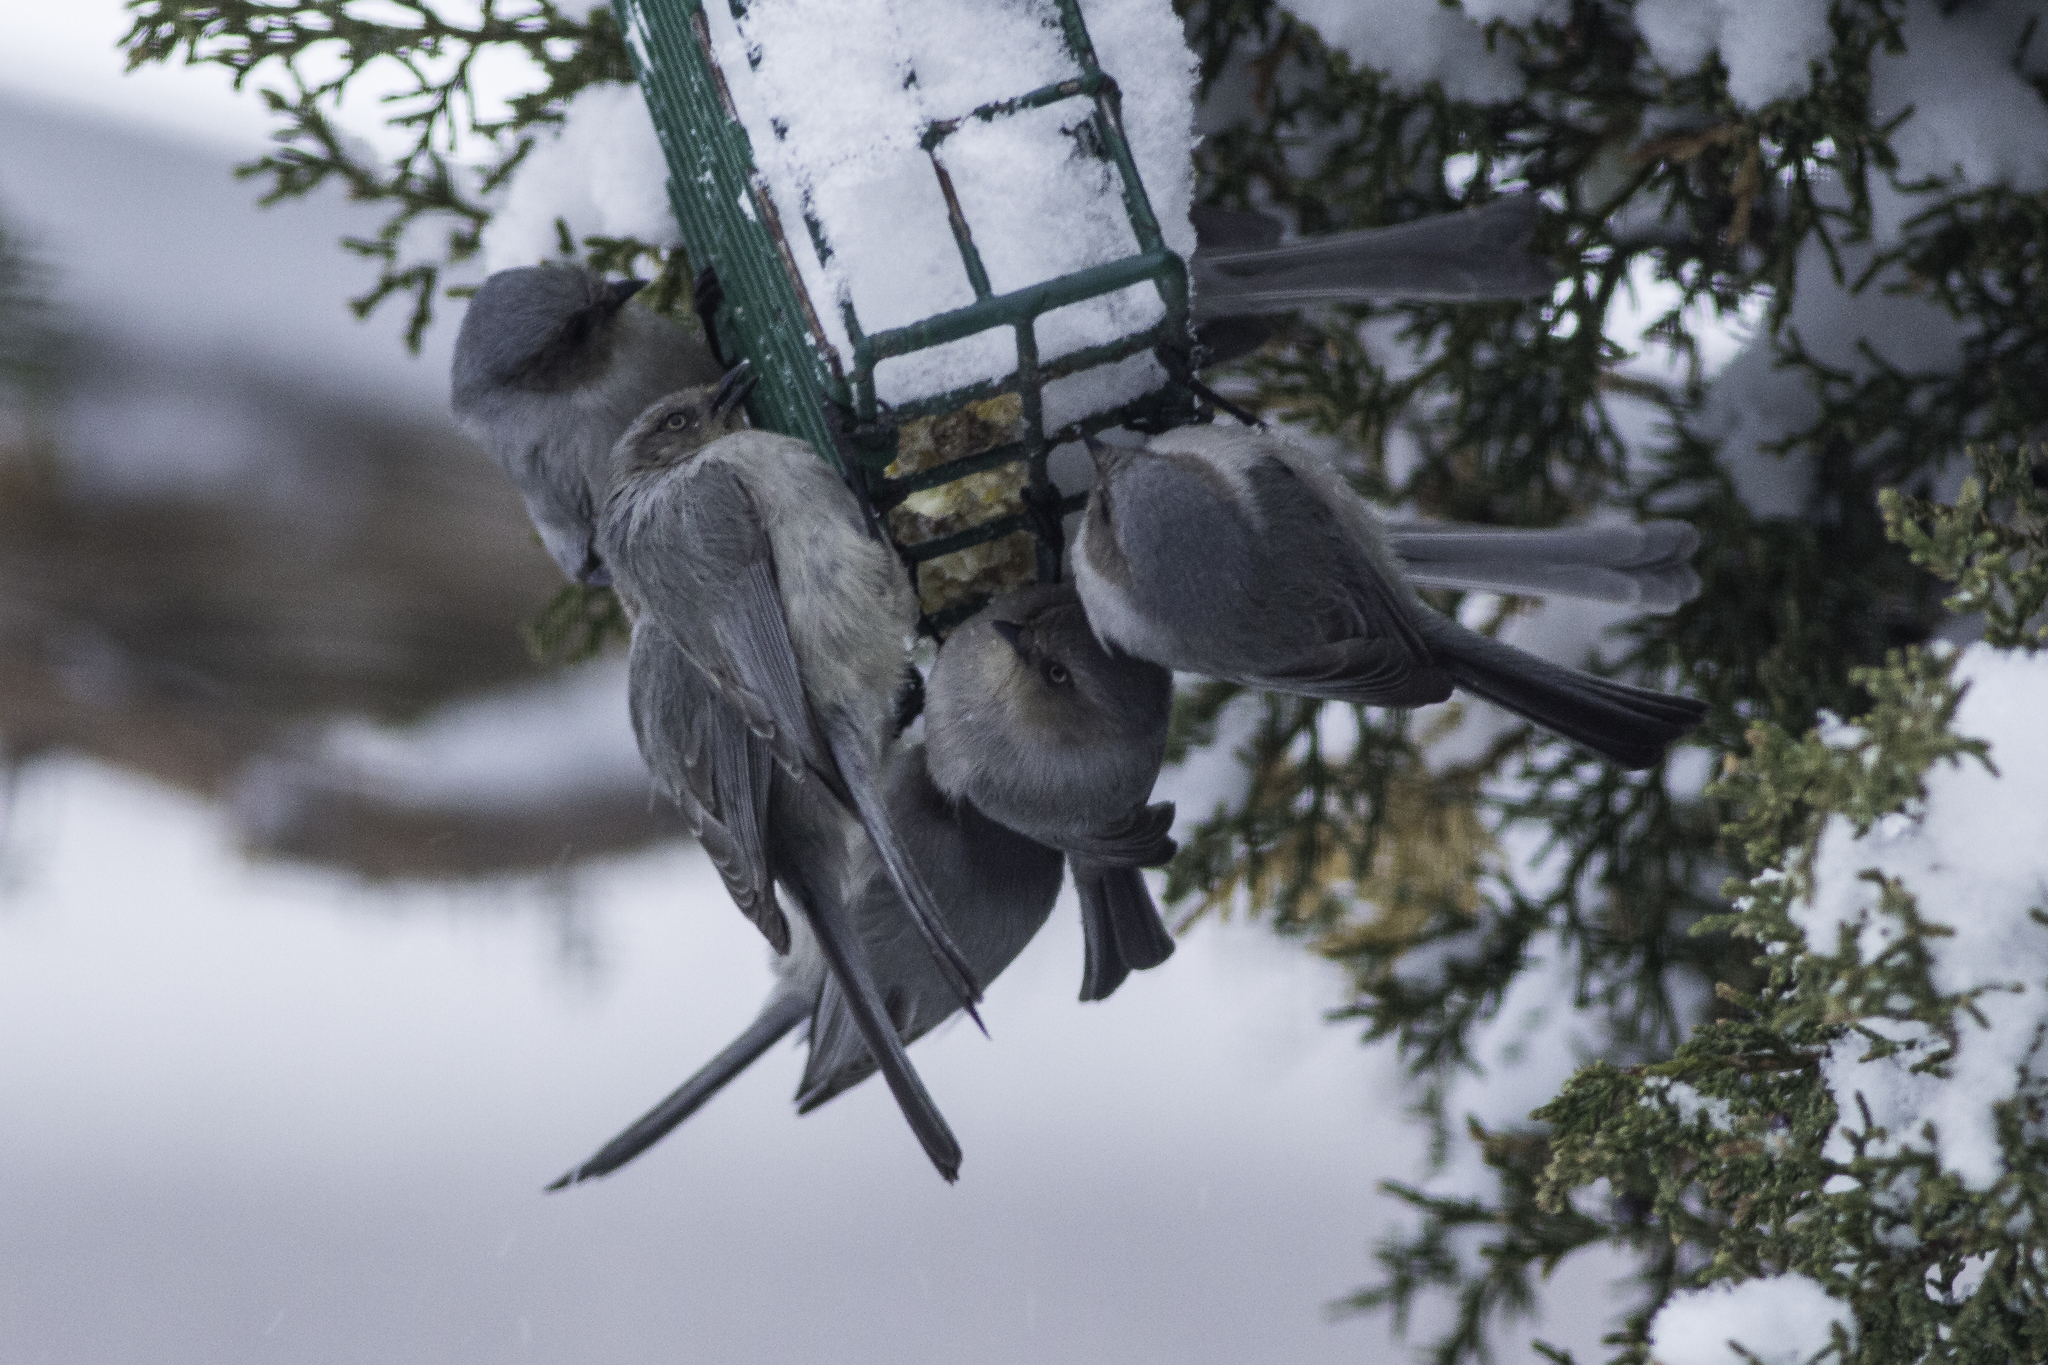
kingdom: Animalia
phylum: Chordata
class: Aves
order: Passeriformes
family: Aegithalidae
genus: Psaltriparus
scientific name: Psaltriparus minimus
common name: American bushtit
